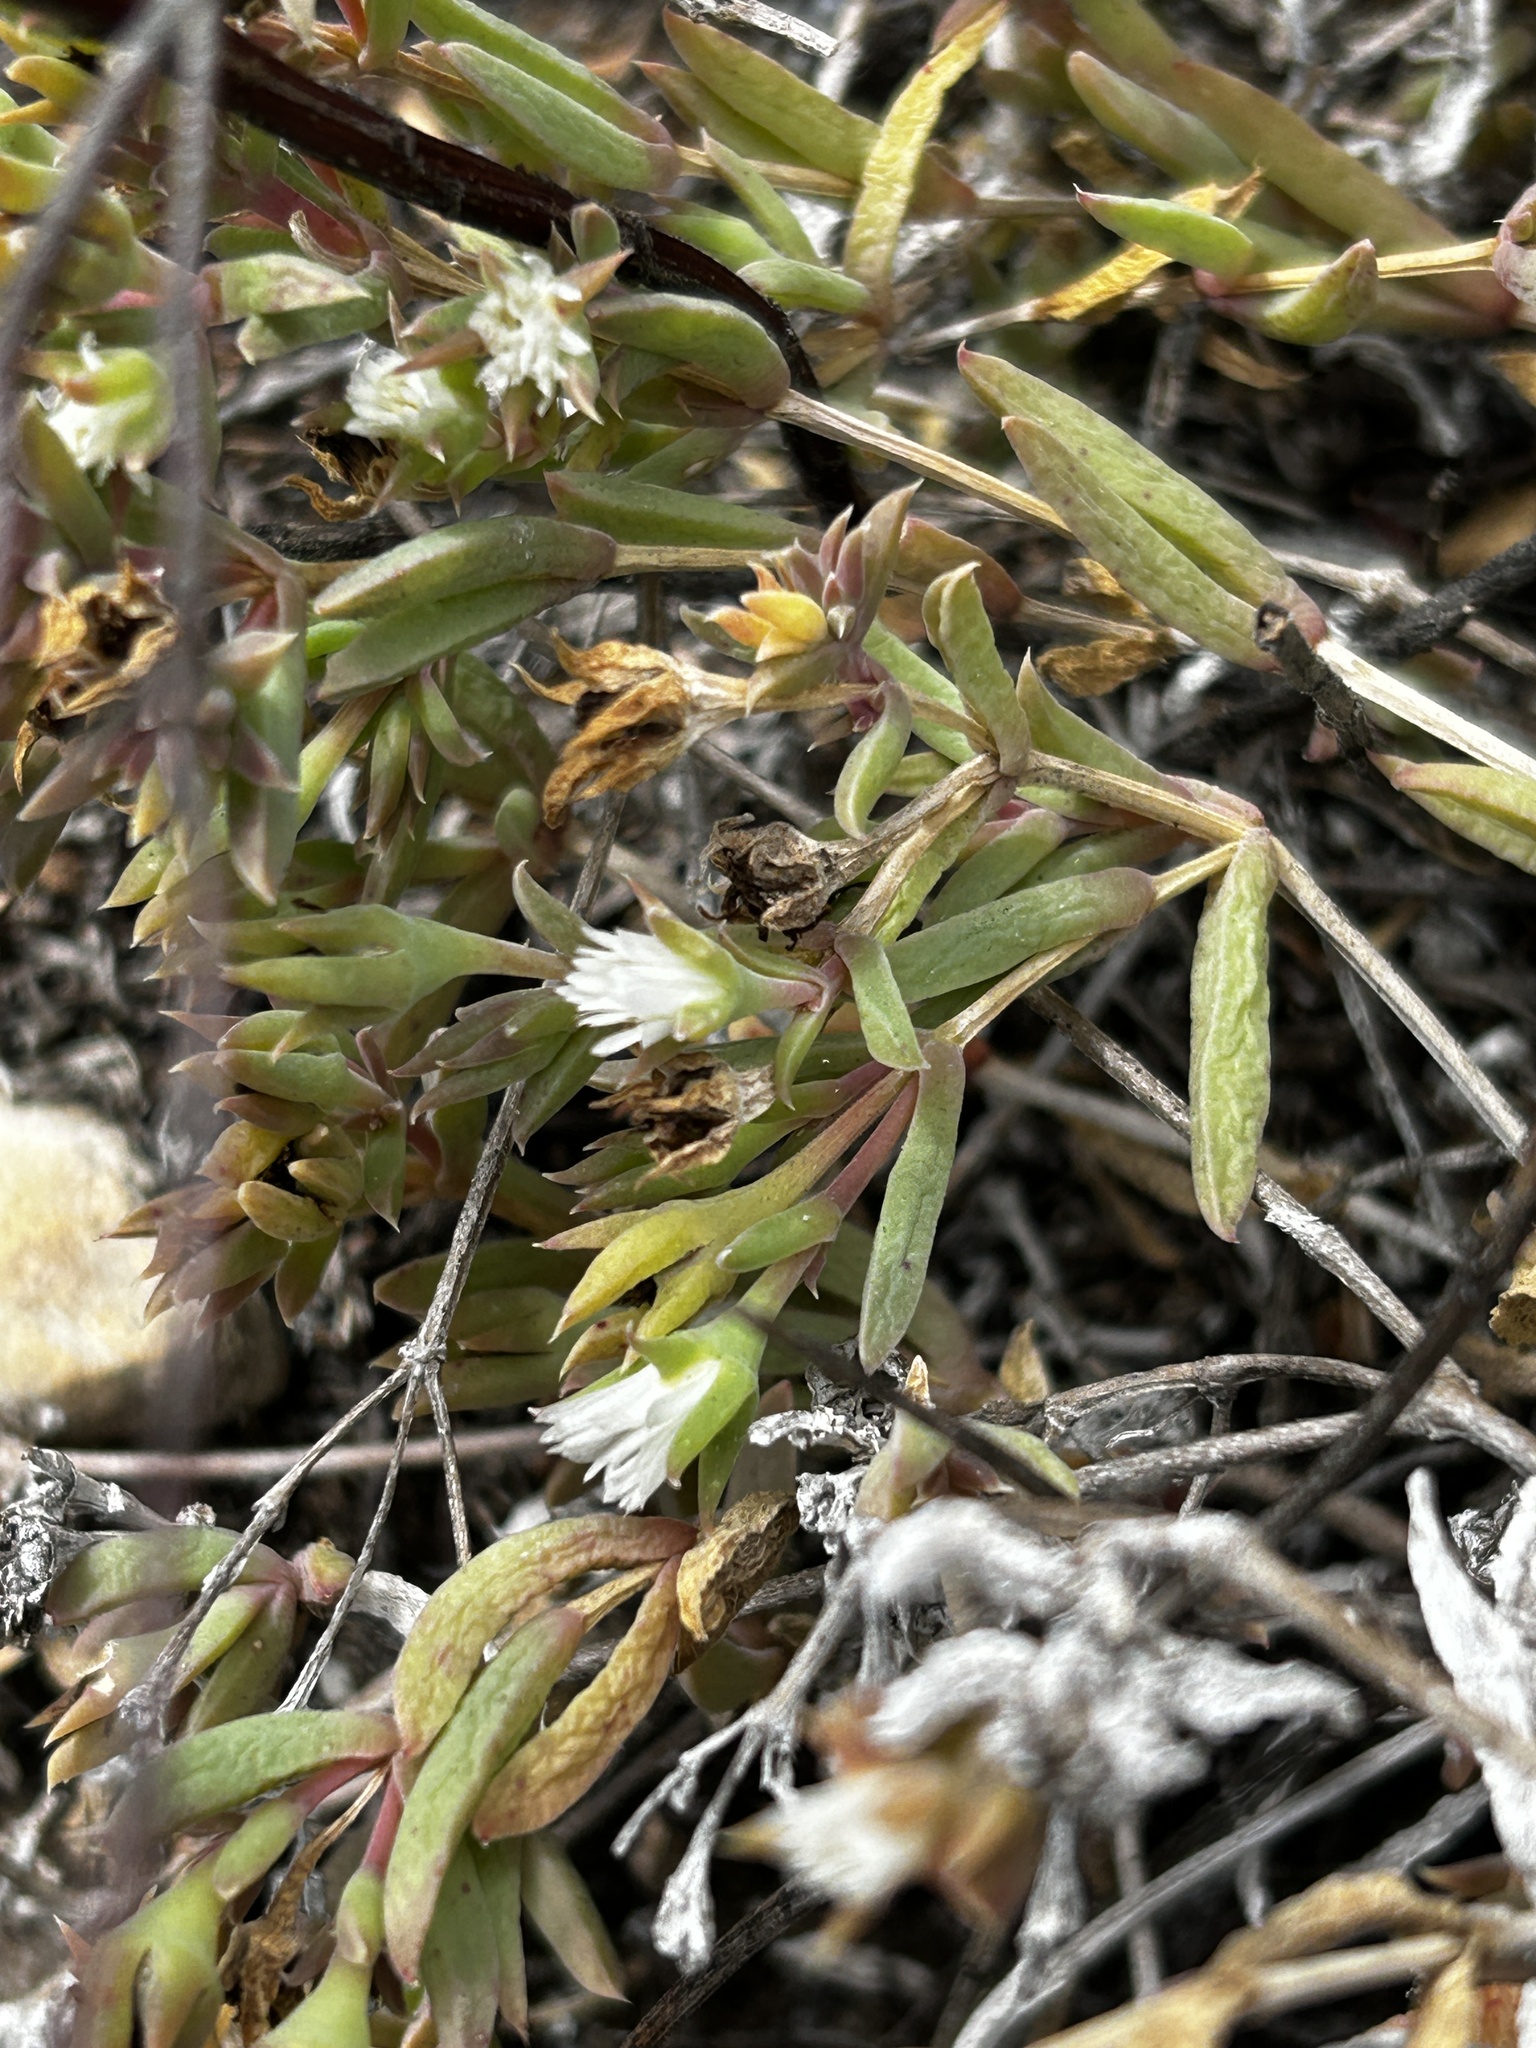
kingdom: Plantae
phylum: Tracheophyta
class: Magnoliopsida
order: Caryophyllales
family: Aizoaceae
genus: Delosperma
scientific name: Delosperma inconspicuum
